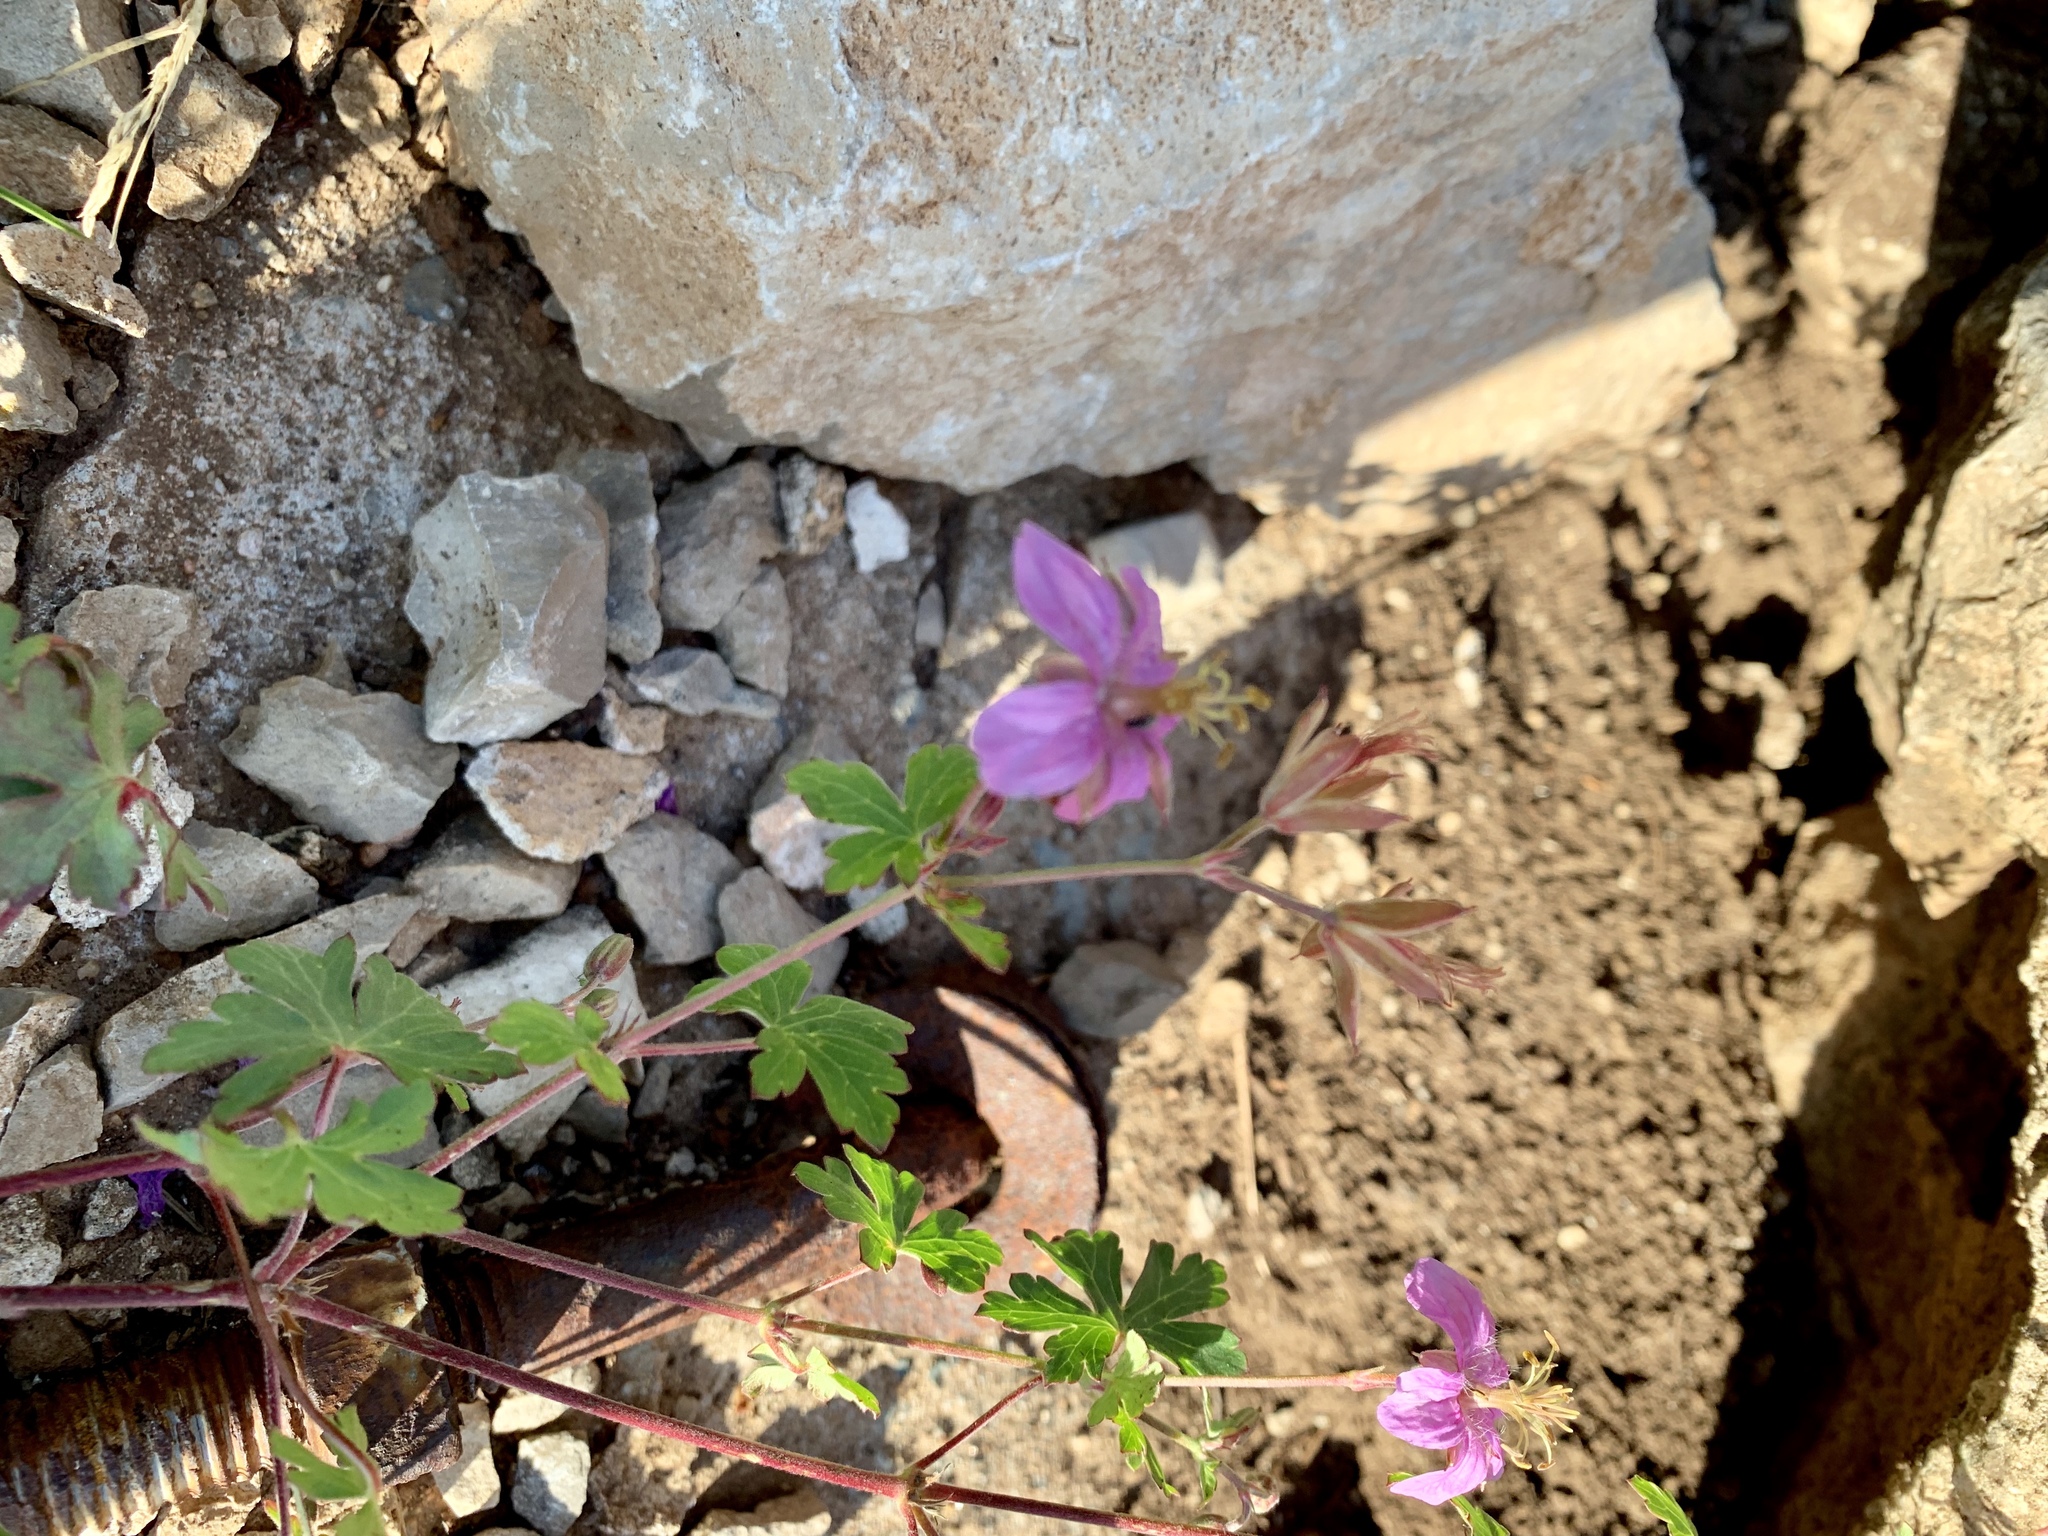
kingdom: Plantae
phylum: Tracheophyta
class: Magnoliopsida
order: Geraniales
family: Geraniaceae
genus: Geranium
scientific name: Geranium caespitosum
